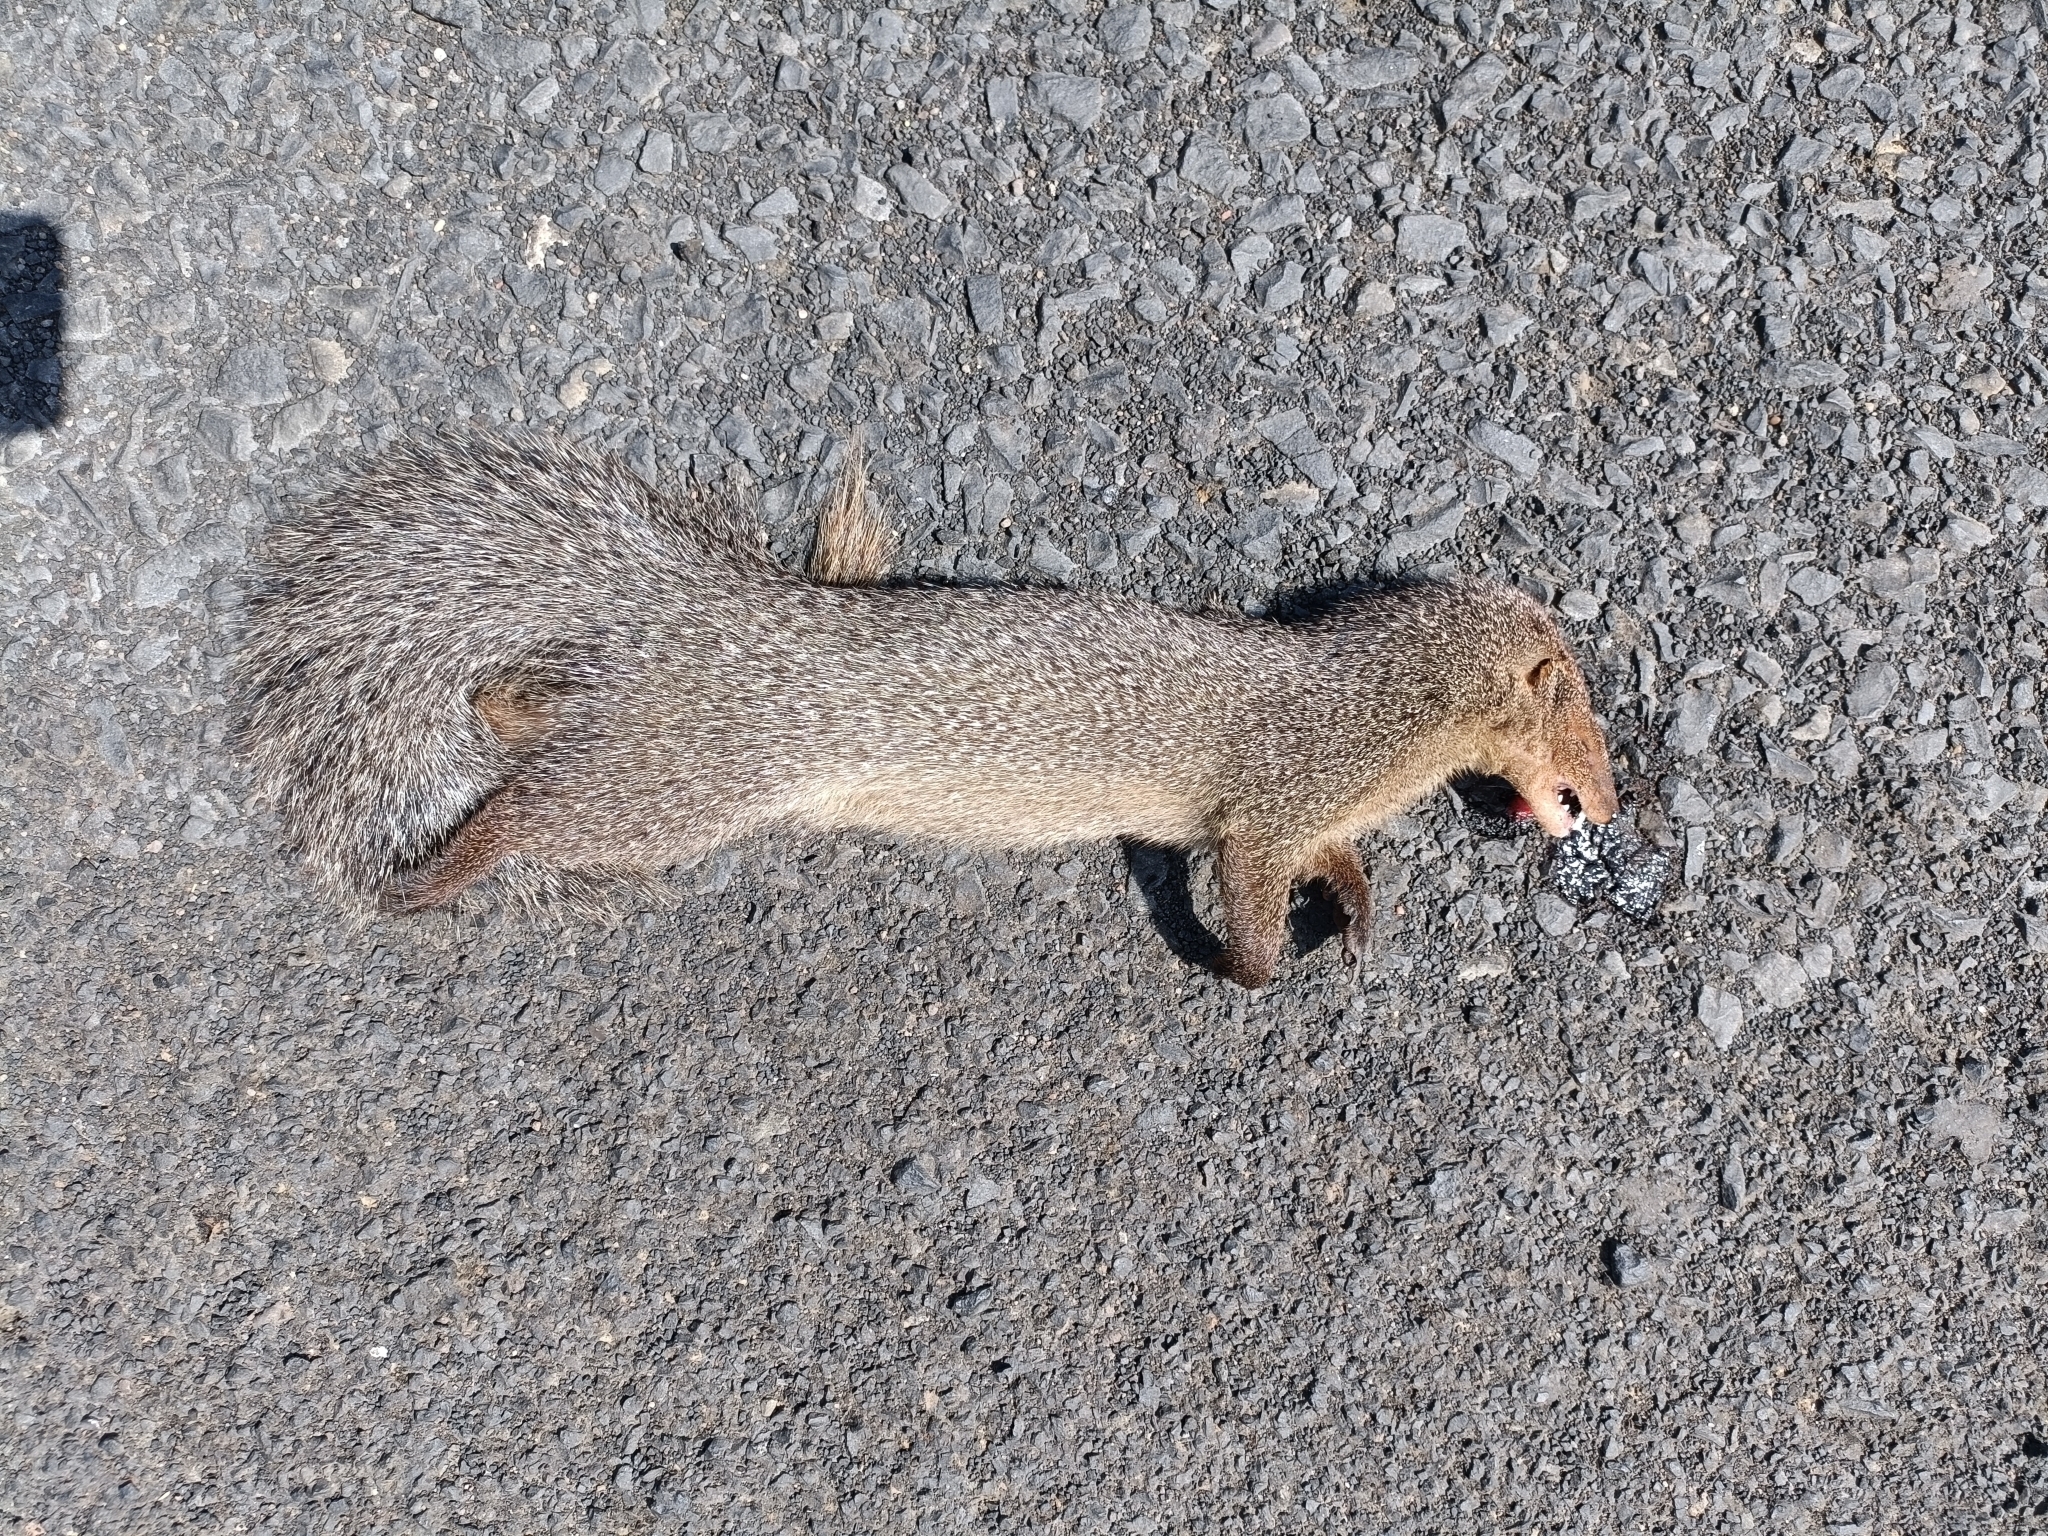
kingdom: Animalia
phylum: Chordata
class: Mammalia
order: Carnivora
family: Herpestidae
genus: Herpestes
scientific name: Herpestes edwardsi
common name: Indian gray mongoose
